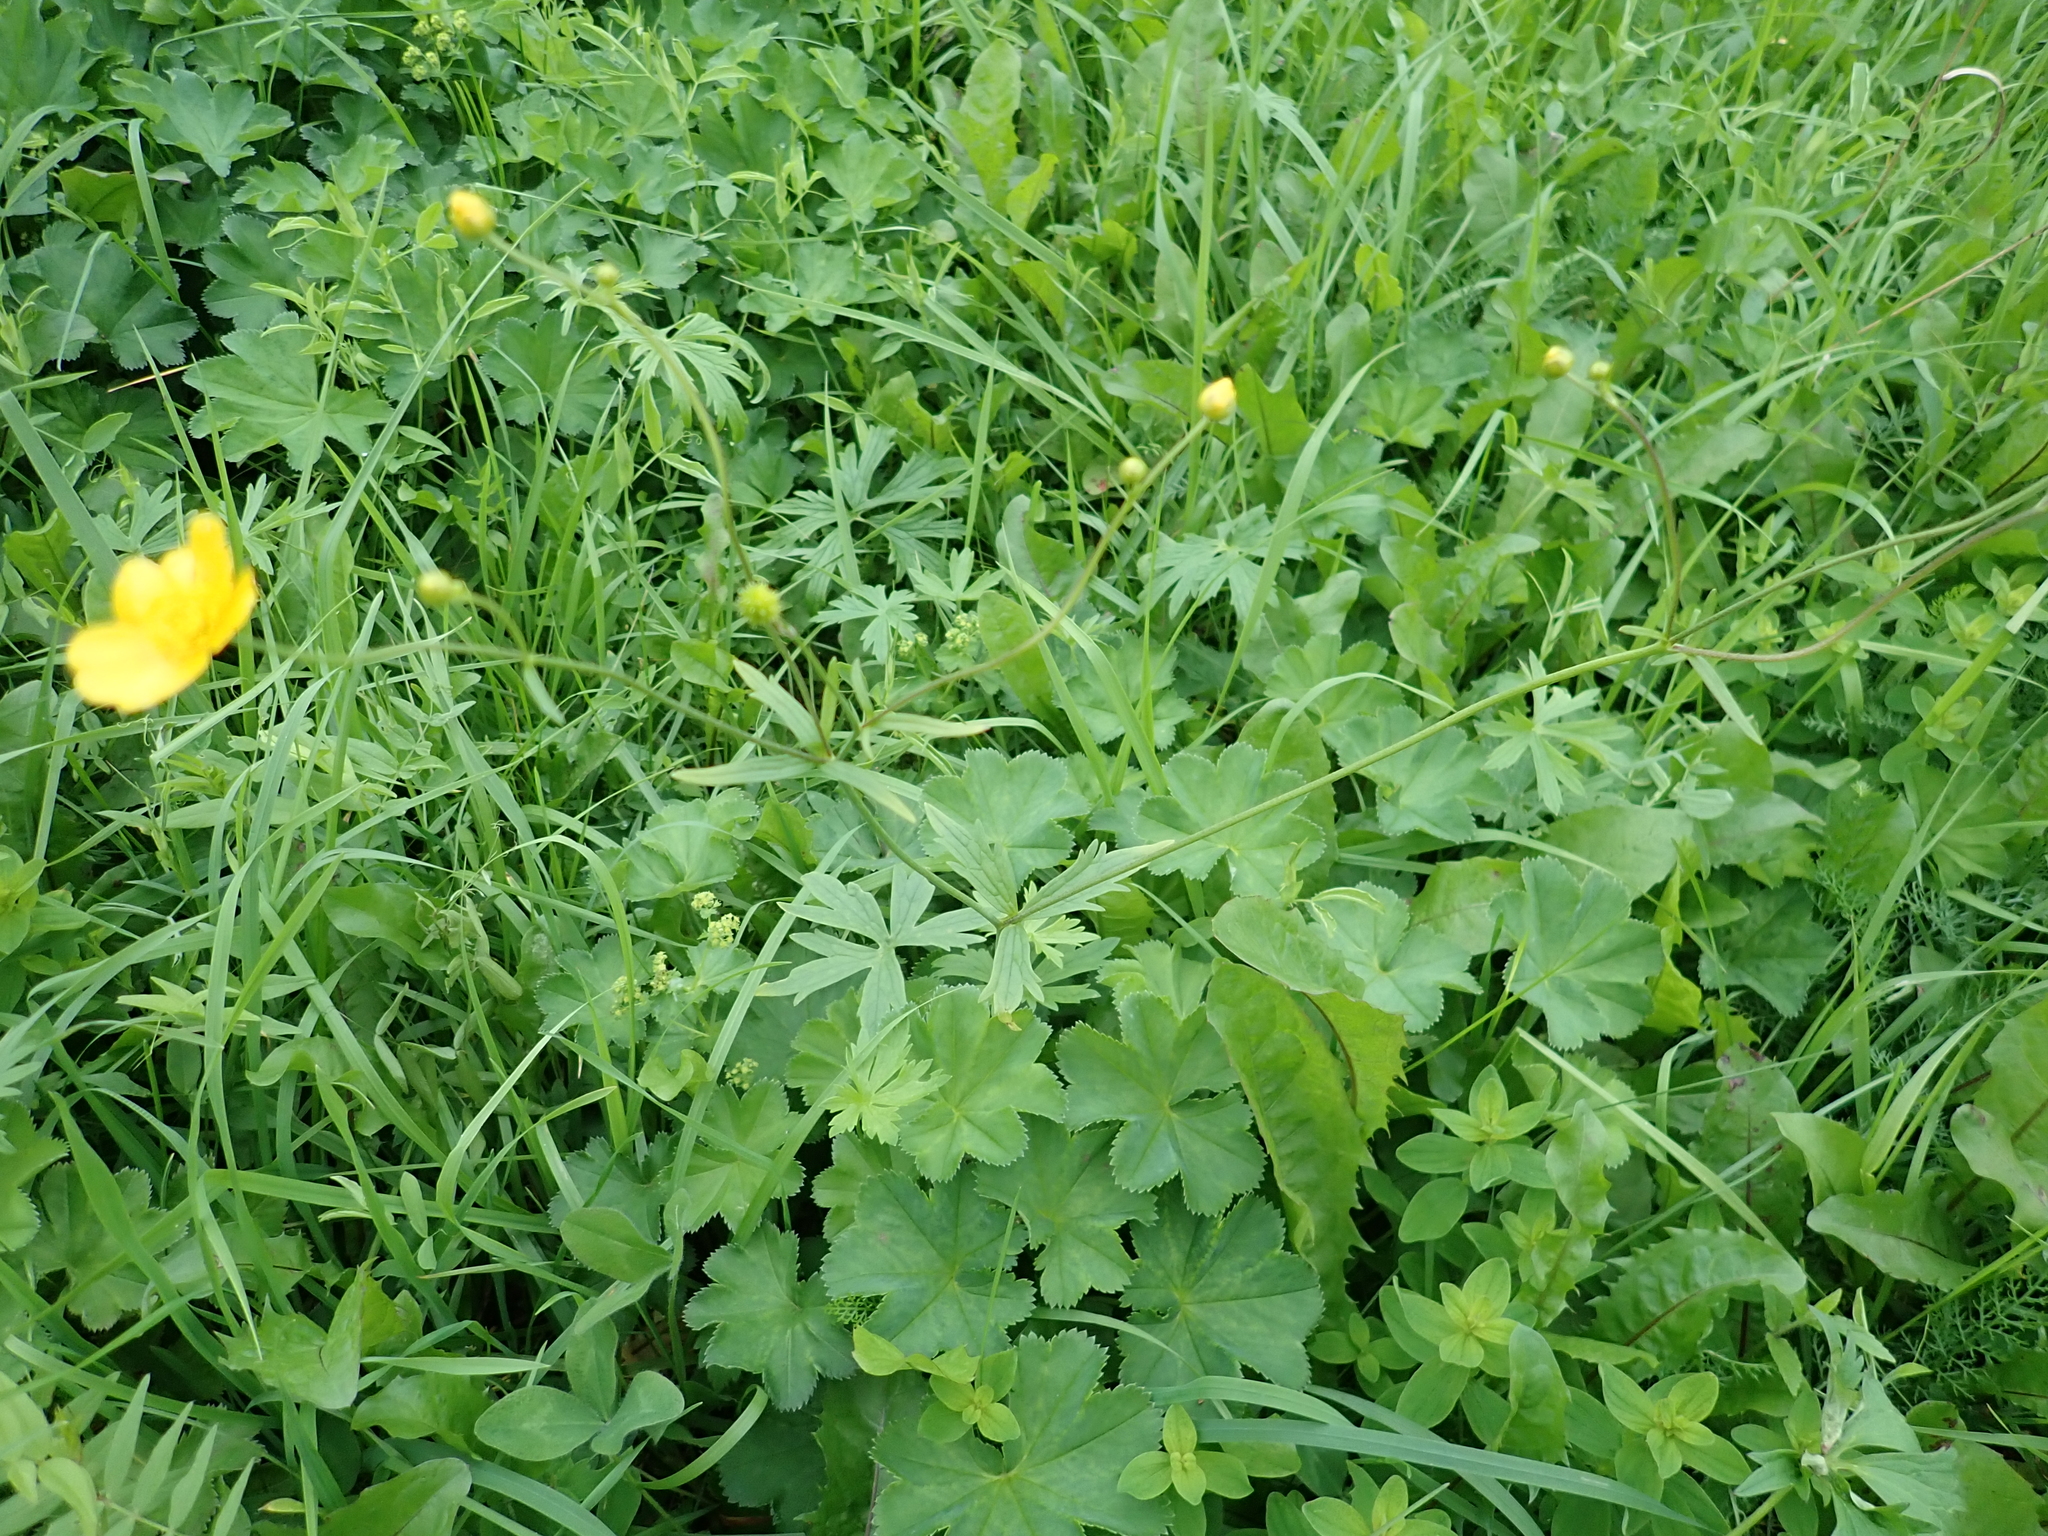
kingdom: Plantae
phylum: Tracheophyta
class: Magnoliopsida
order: Ranunculales
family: Ranunculaceae
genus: Ranunculus
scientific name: Ranunculus acris
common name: Meadow buttercup
